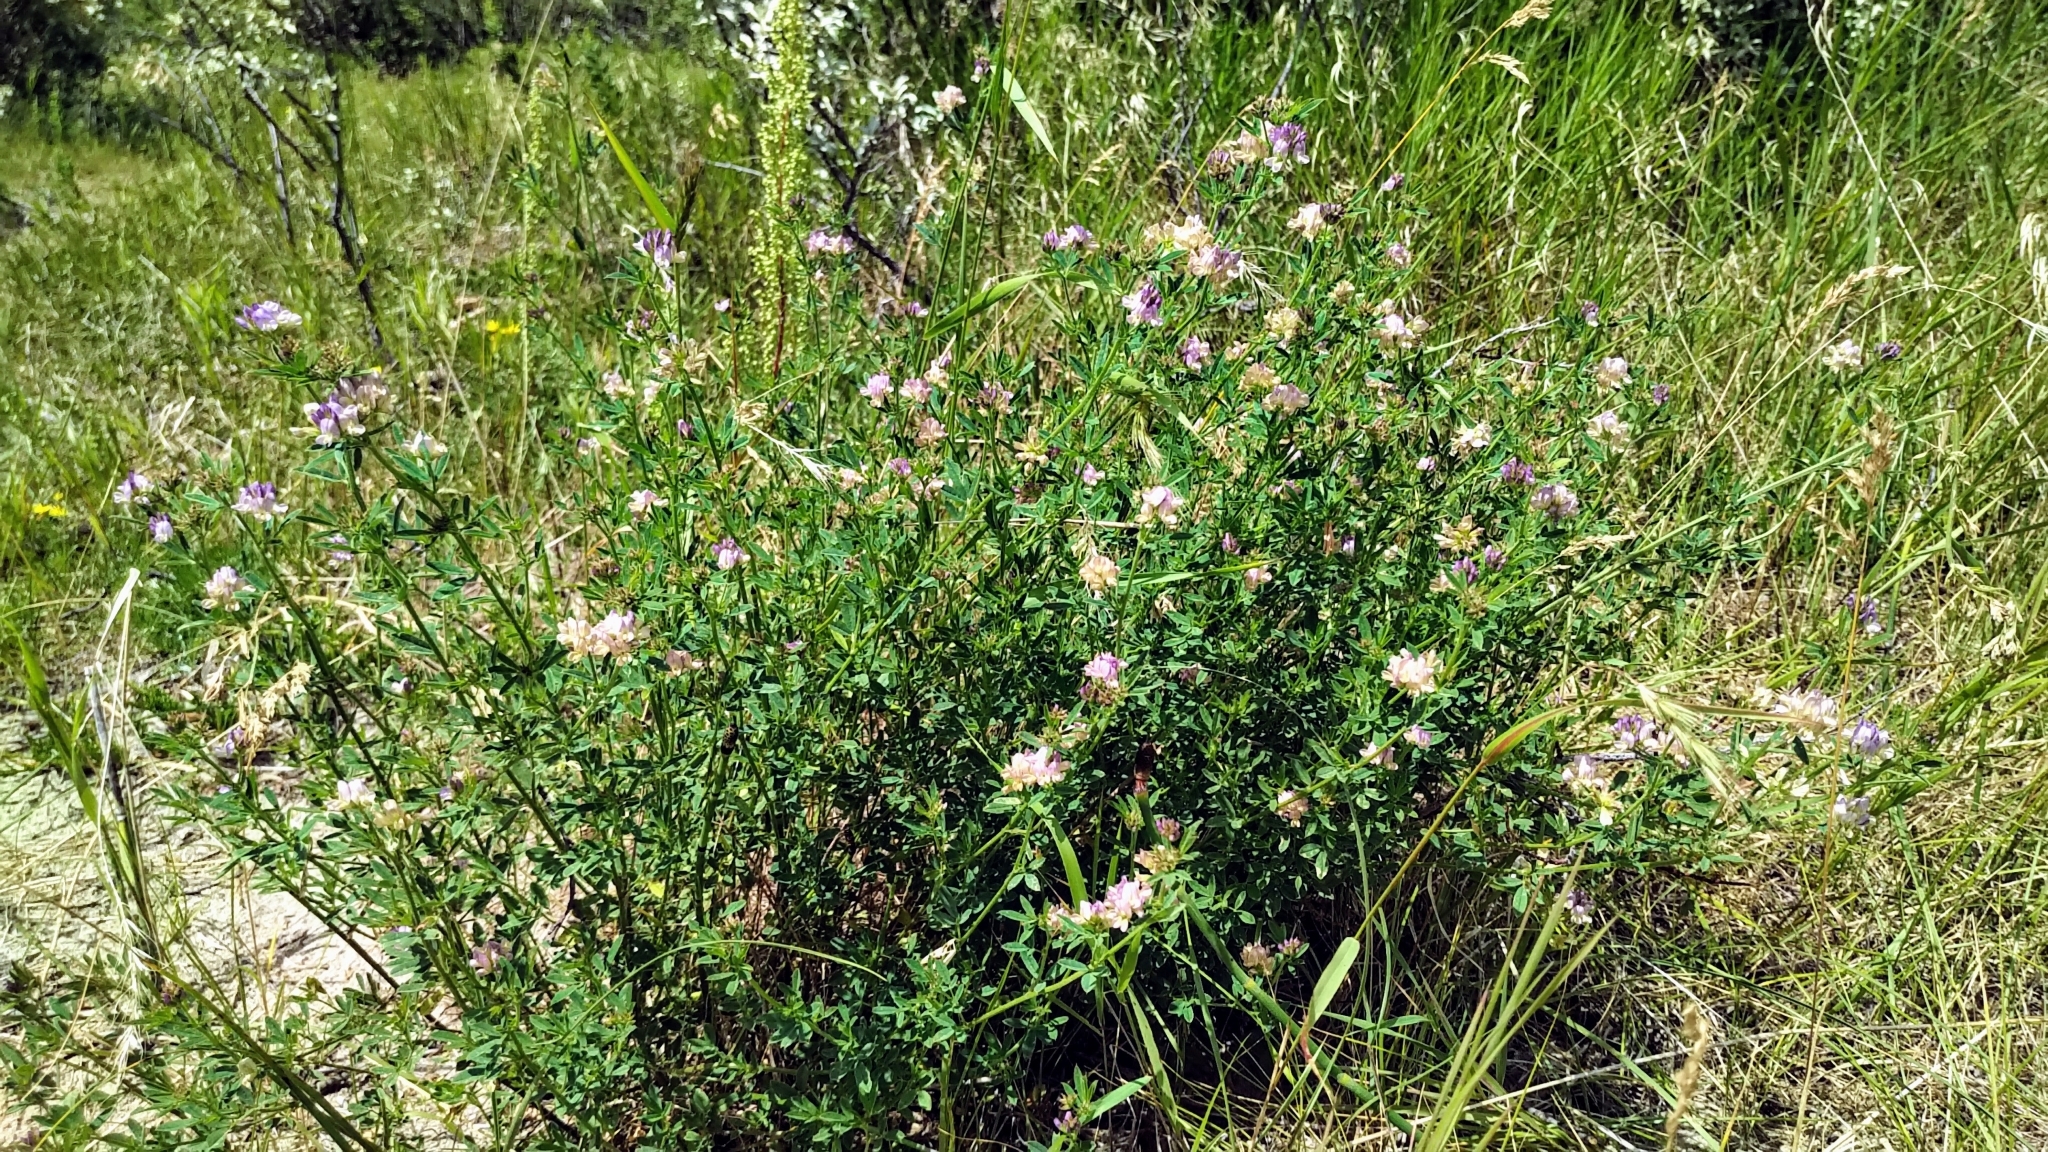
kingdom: Plantae
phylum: Tracheophyta
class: Magnoliopsida
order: Fabales
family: Fabaceae
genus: Medicago
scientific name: Medicago sativa
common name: Alfalfa
